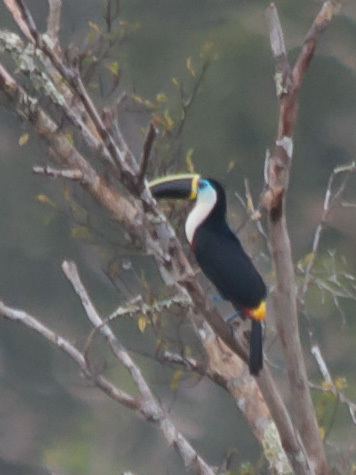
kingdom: Animalia
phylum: Chordata
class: Aves
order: Piciformes
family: Ramphastidae
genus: Ramphastos
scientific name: Ramphastos tucanus
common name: White-throated toucan
